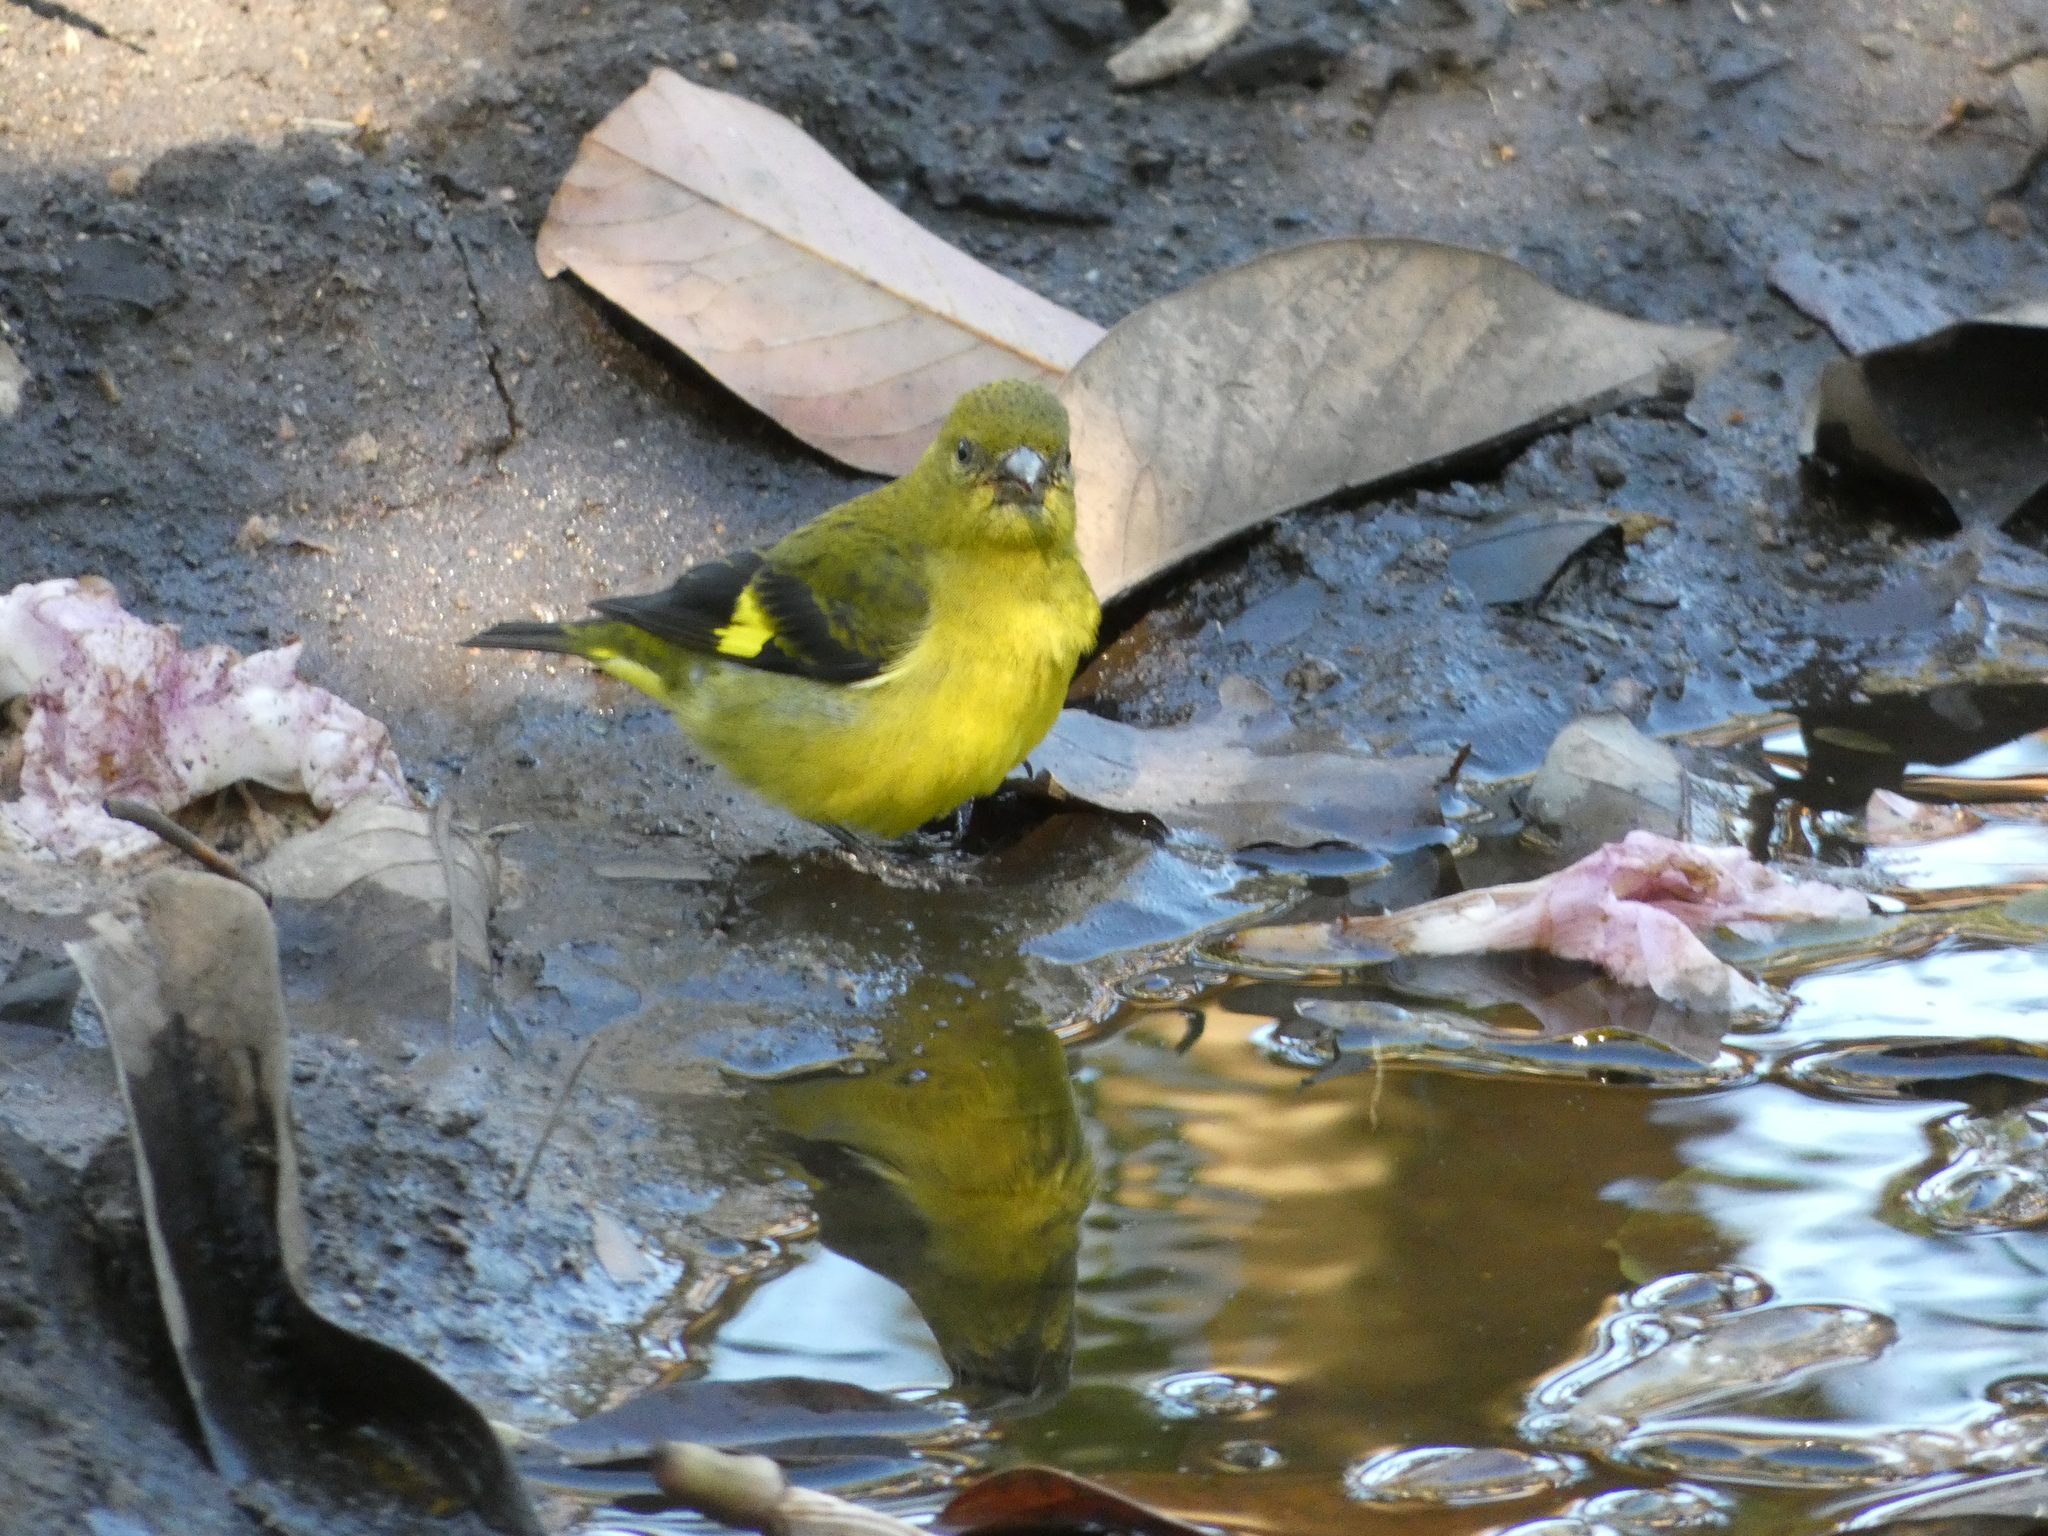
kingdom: Animalia
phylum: Chordata
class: Aves
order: Passeriformes
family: Fringillidae
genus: Spinus
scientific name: Spinus xanthogastrus
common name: Yellow-bellied siskin
